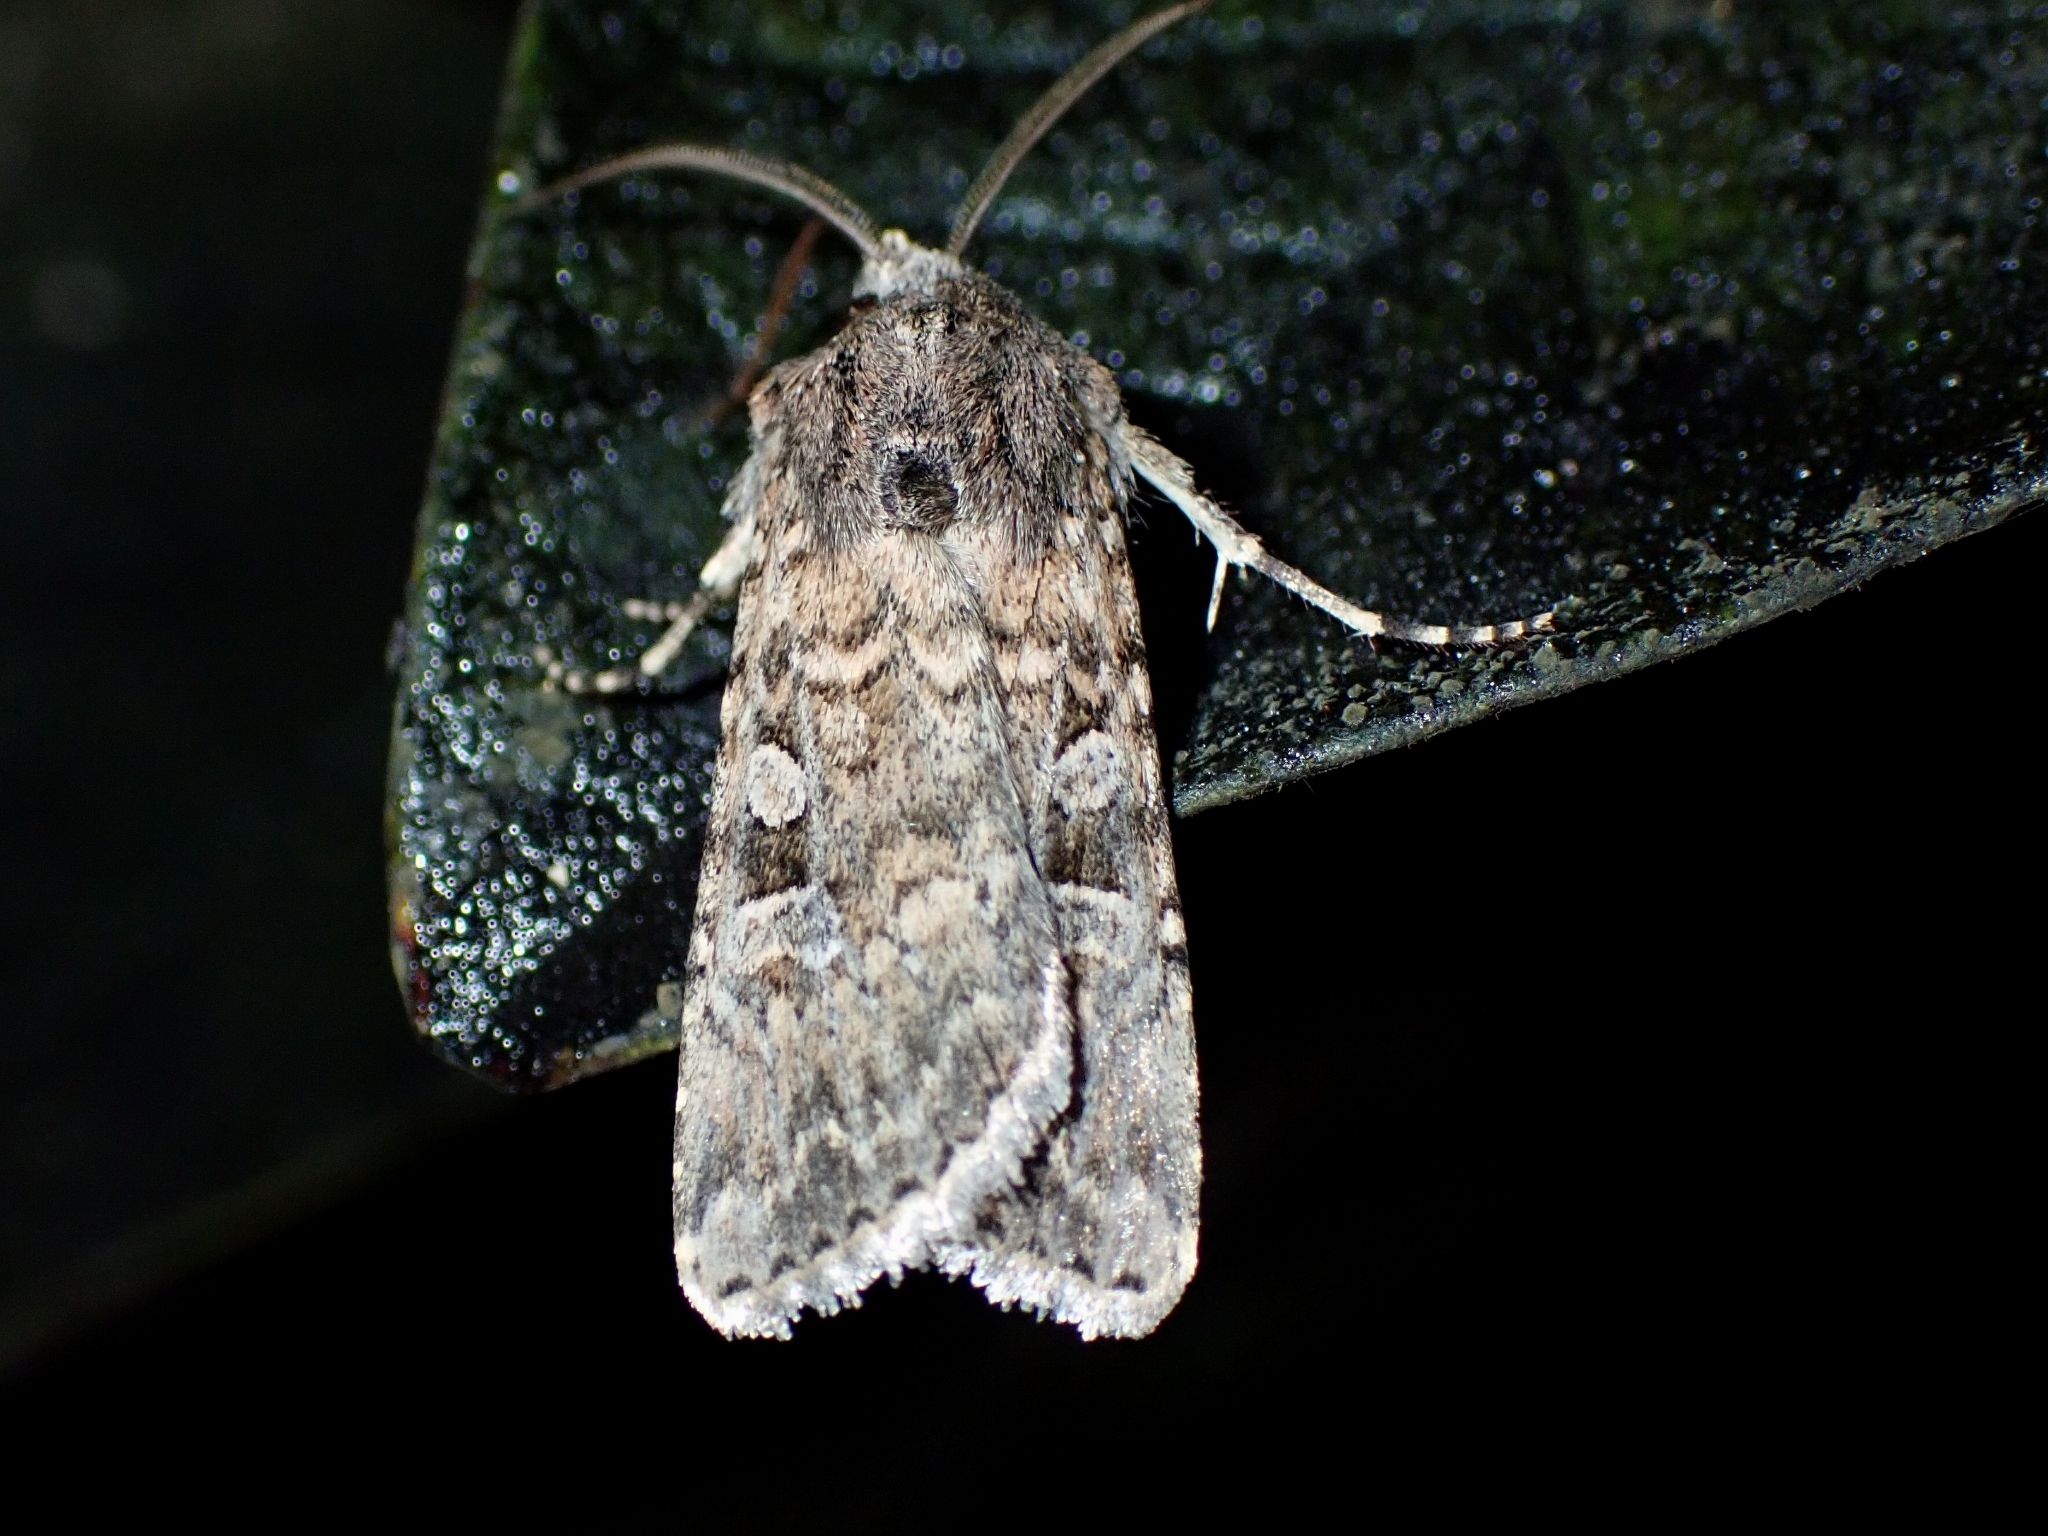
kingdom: Animalia
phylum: Arthropoda
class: Insecta
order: Lepidoptera
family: Noctuidae
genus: Euxoa
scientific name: Euxoa canariensis
